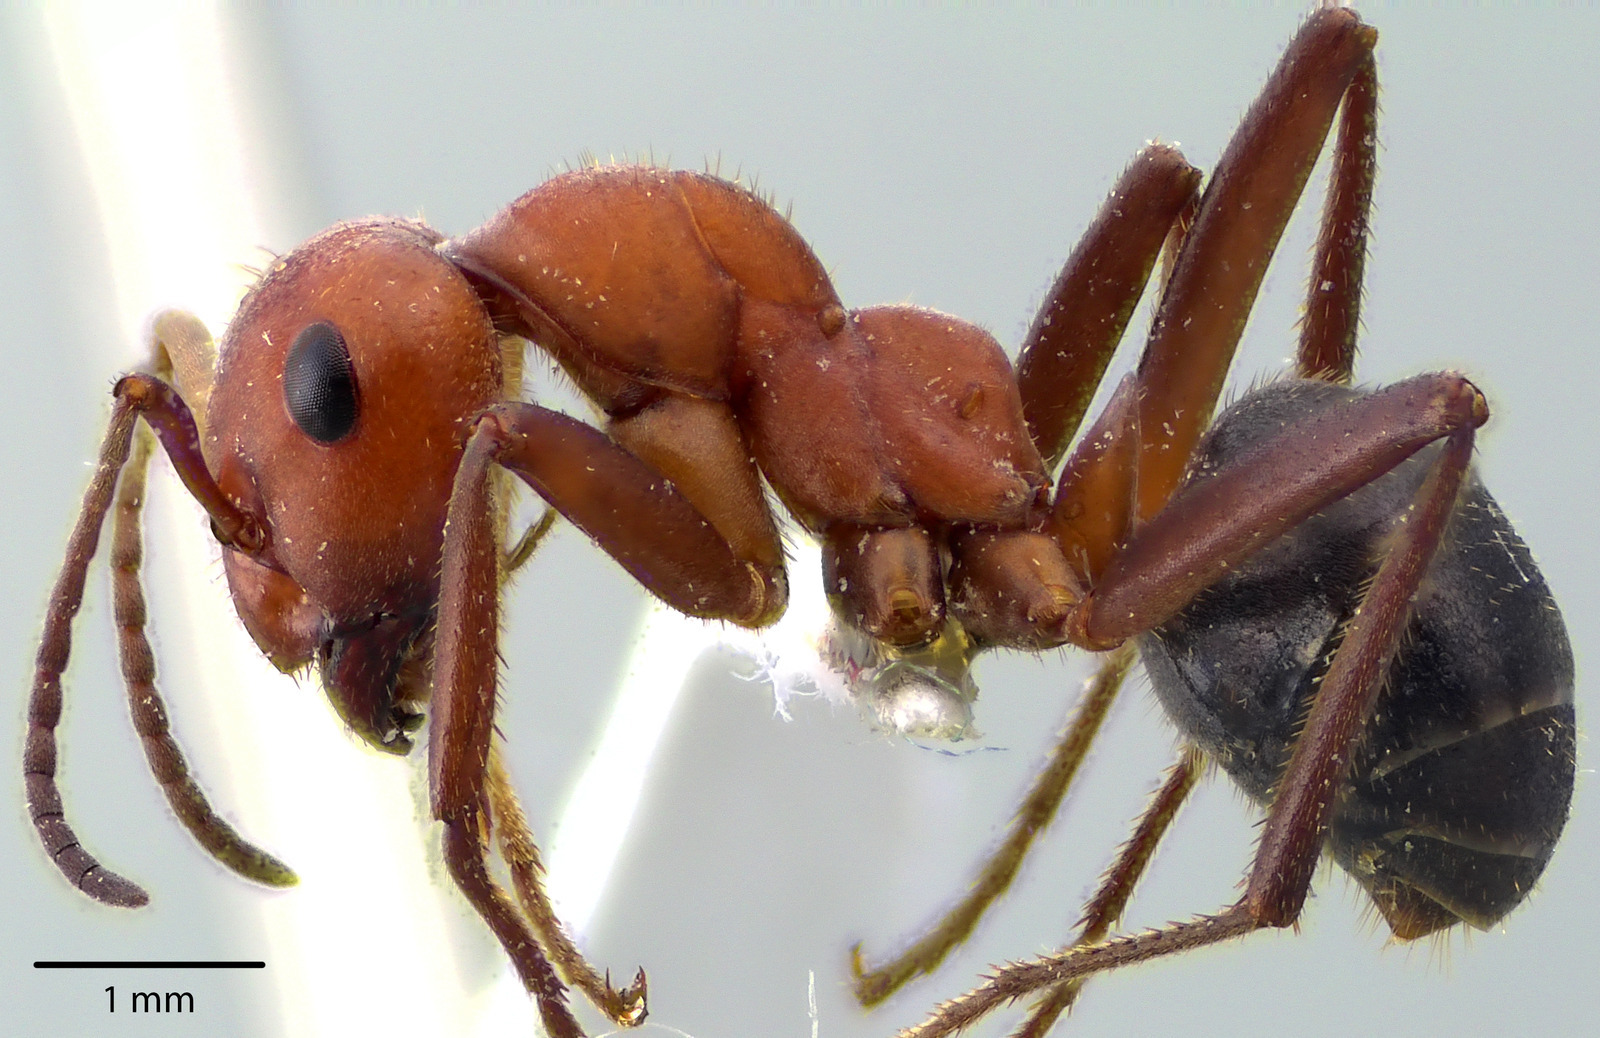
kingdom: Animalia
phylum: Arthropoda
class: Insecta
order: Hymenoptera
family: Formicidae
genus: Formica
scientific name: Formica obscuriventris
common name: Northern red wood ant
